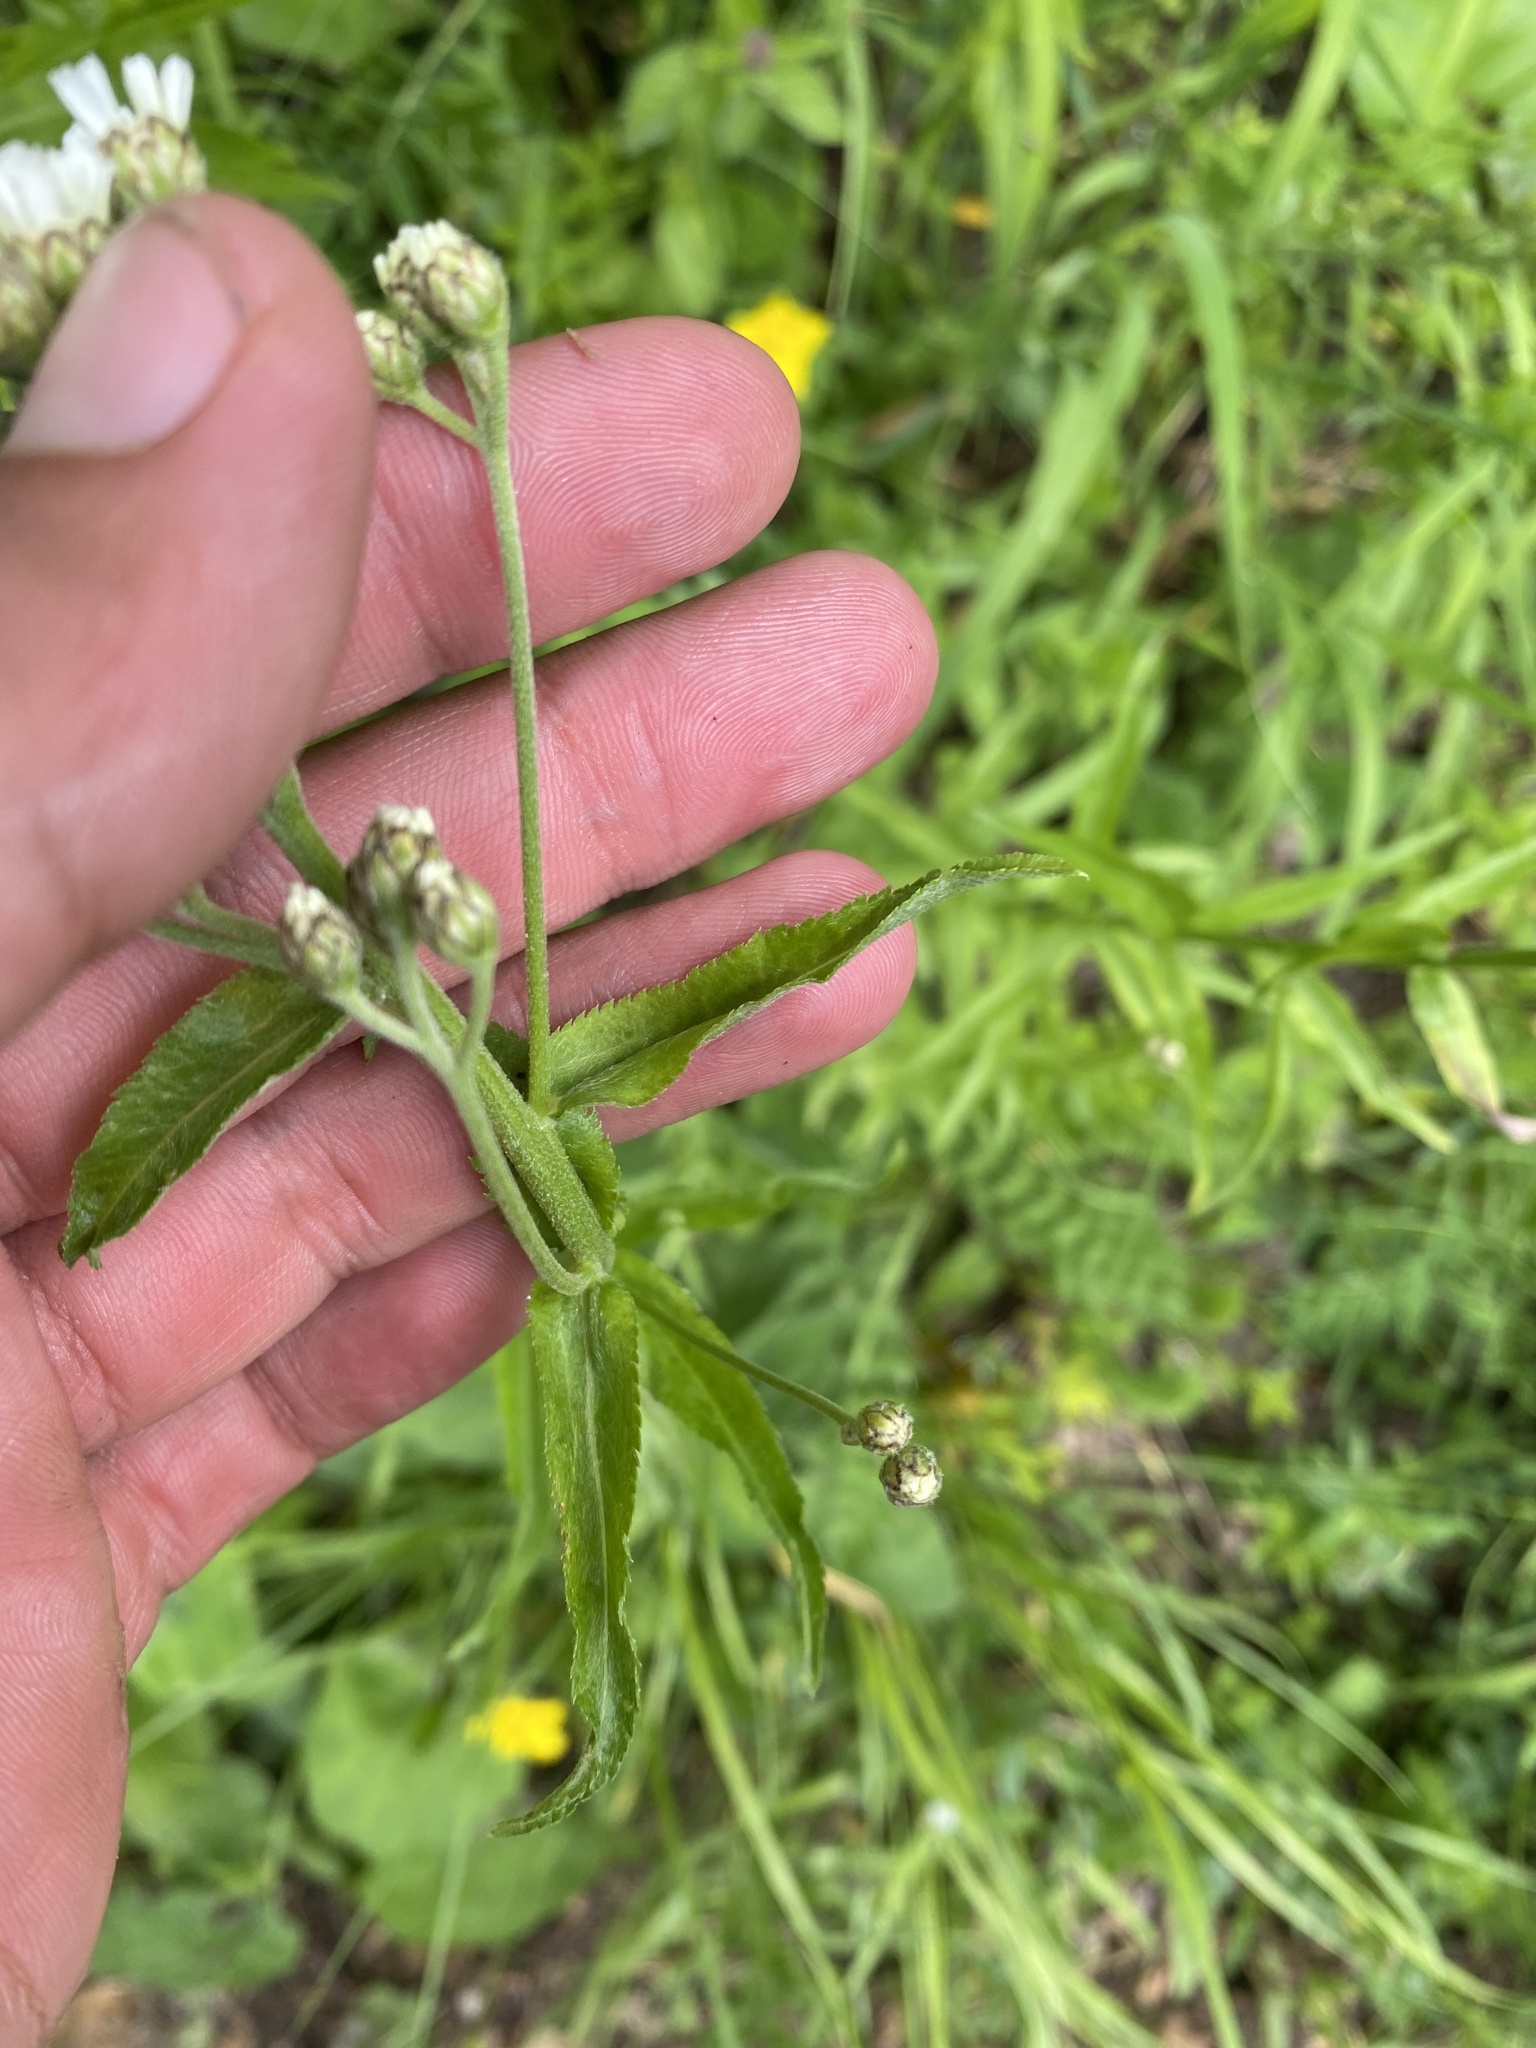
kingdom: Plantae
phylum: Tracheophyta
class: Magnoliopsida
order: Asterales
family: Asteraceae
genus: Achillea
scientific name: Achillea biserrata
